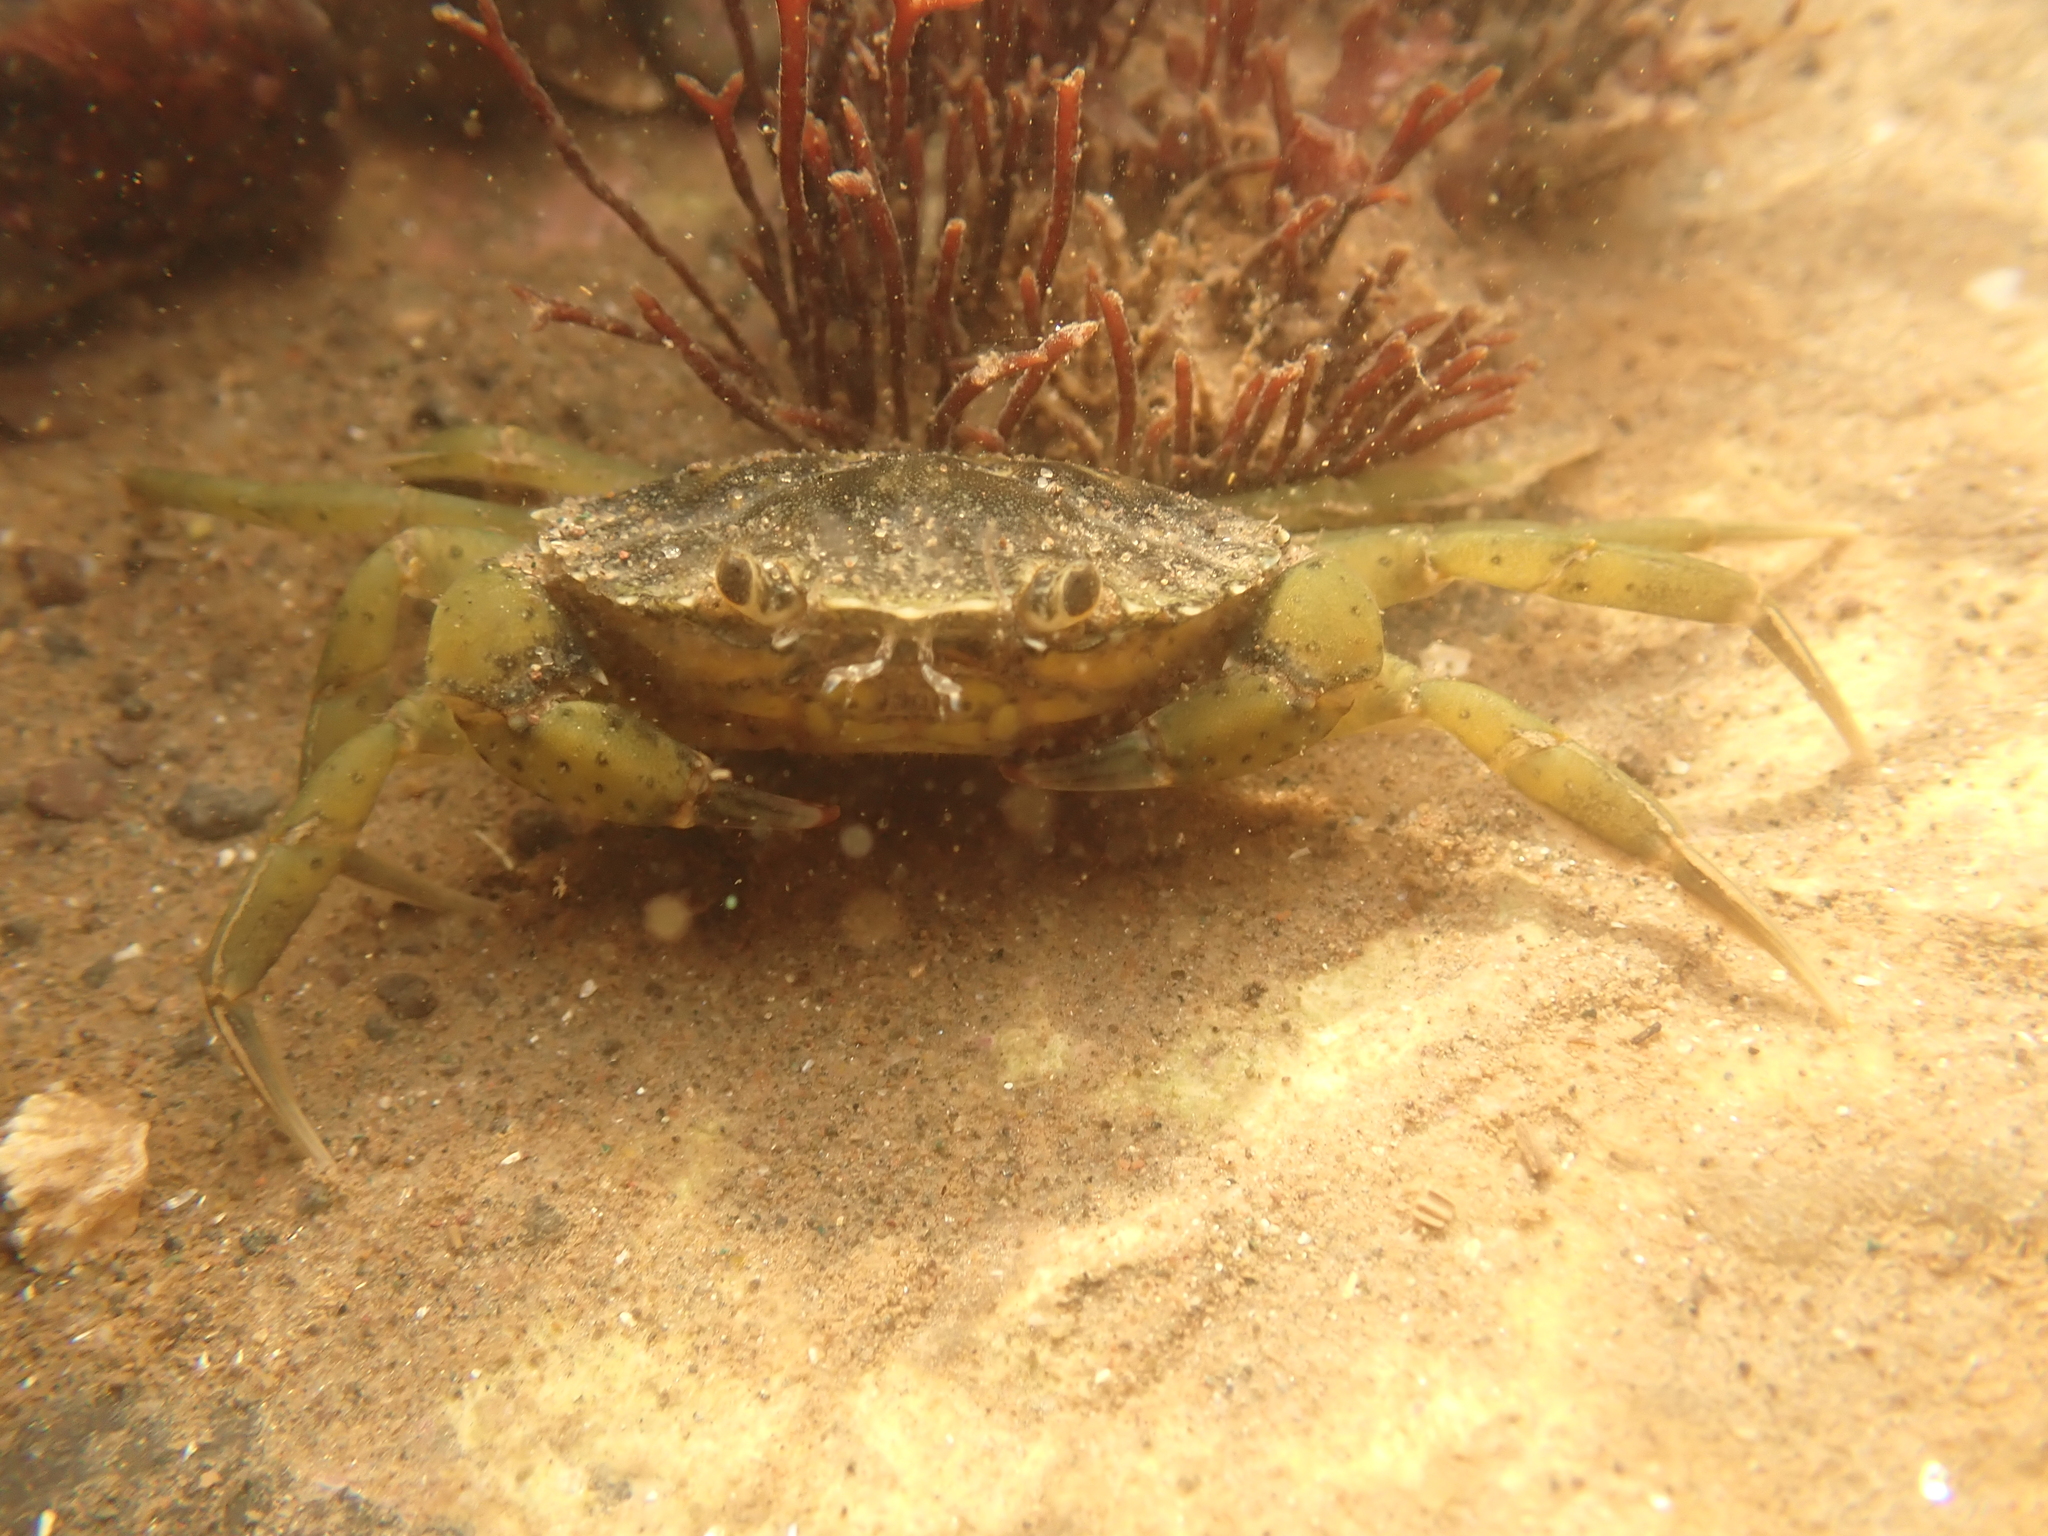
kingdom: Animalia
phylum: Arthropoda
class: Malacostraca
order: Decapoda
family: Carcinidae
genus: Carcinus
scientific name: Carcinus maenas
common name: European green crab
